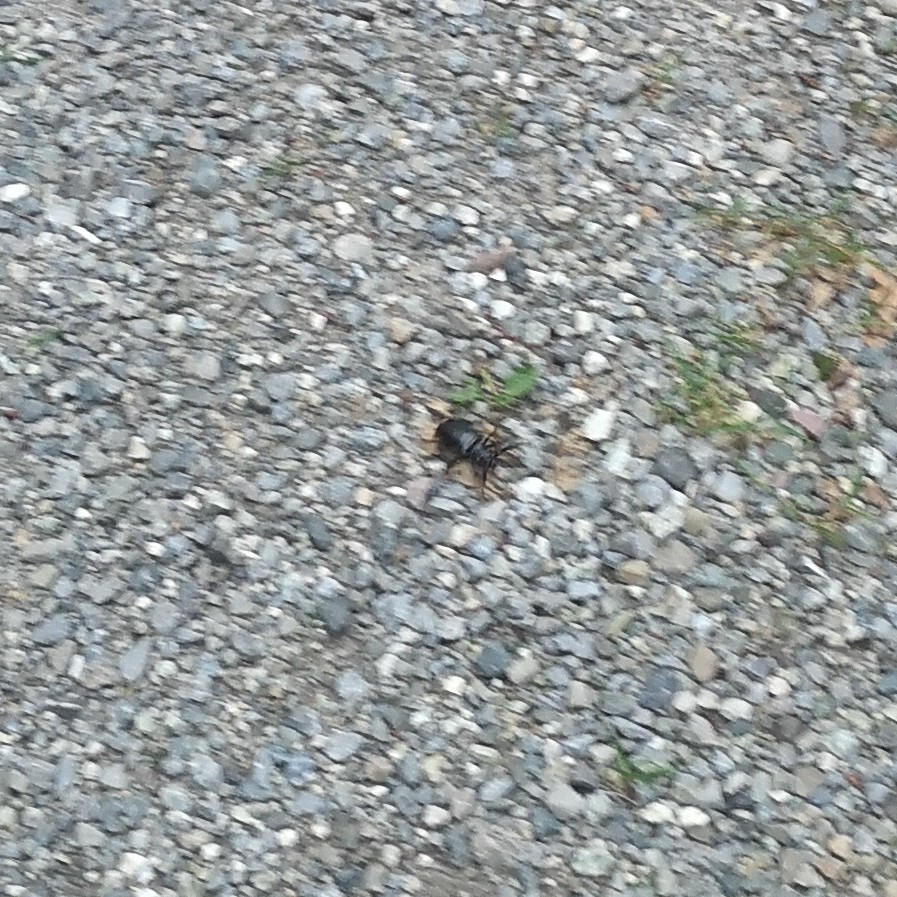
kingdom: Animalia
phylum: Arthropoda
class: Insecta
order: Coleoptera
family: Cerambycidae
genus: Prionus
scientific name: Prionus coriarius
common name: Tanner beetle
